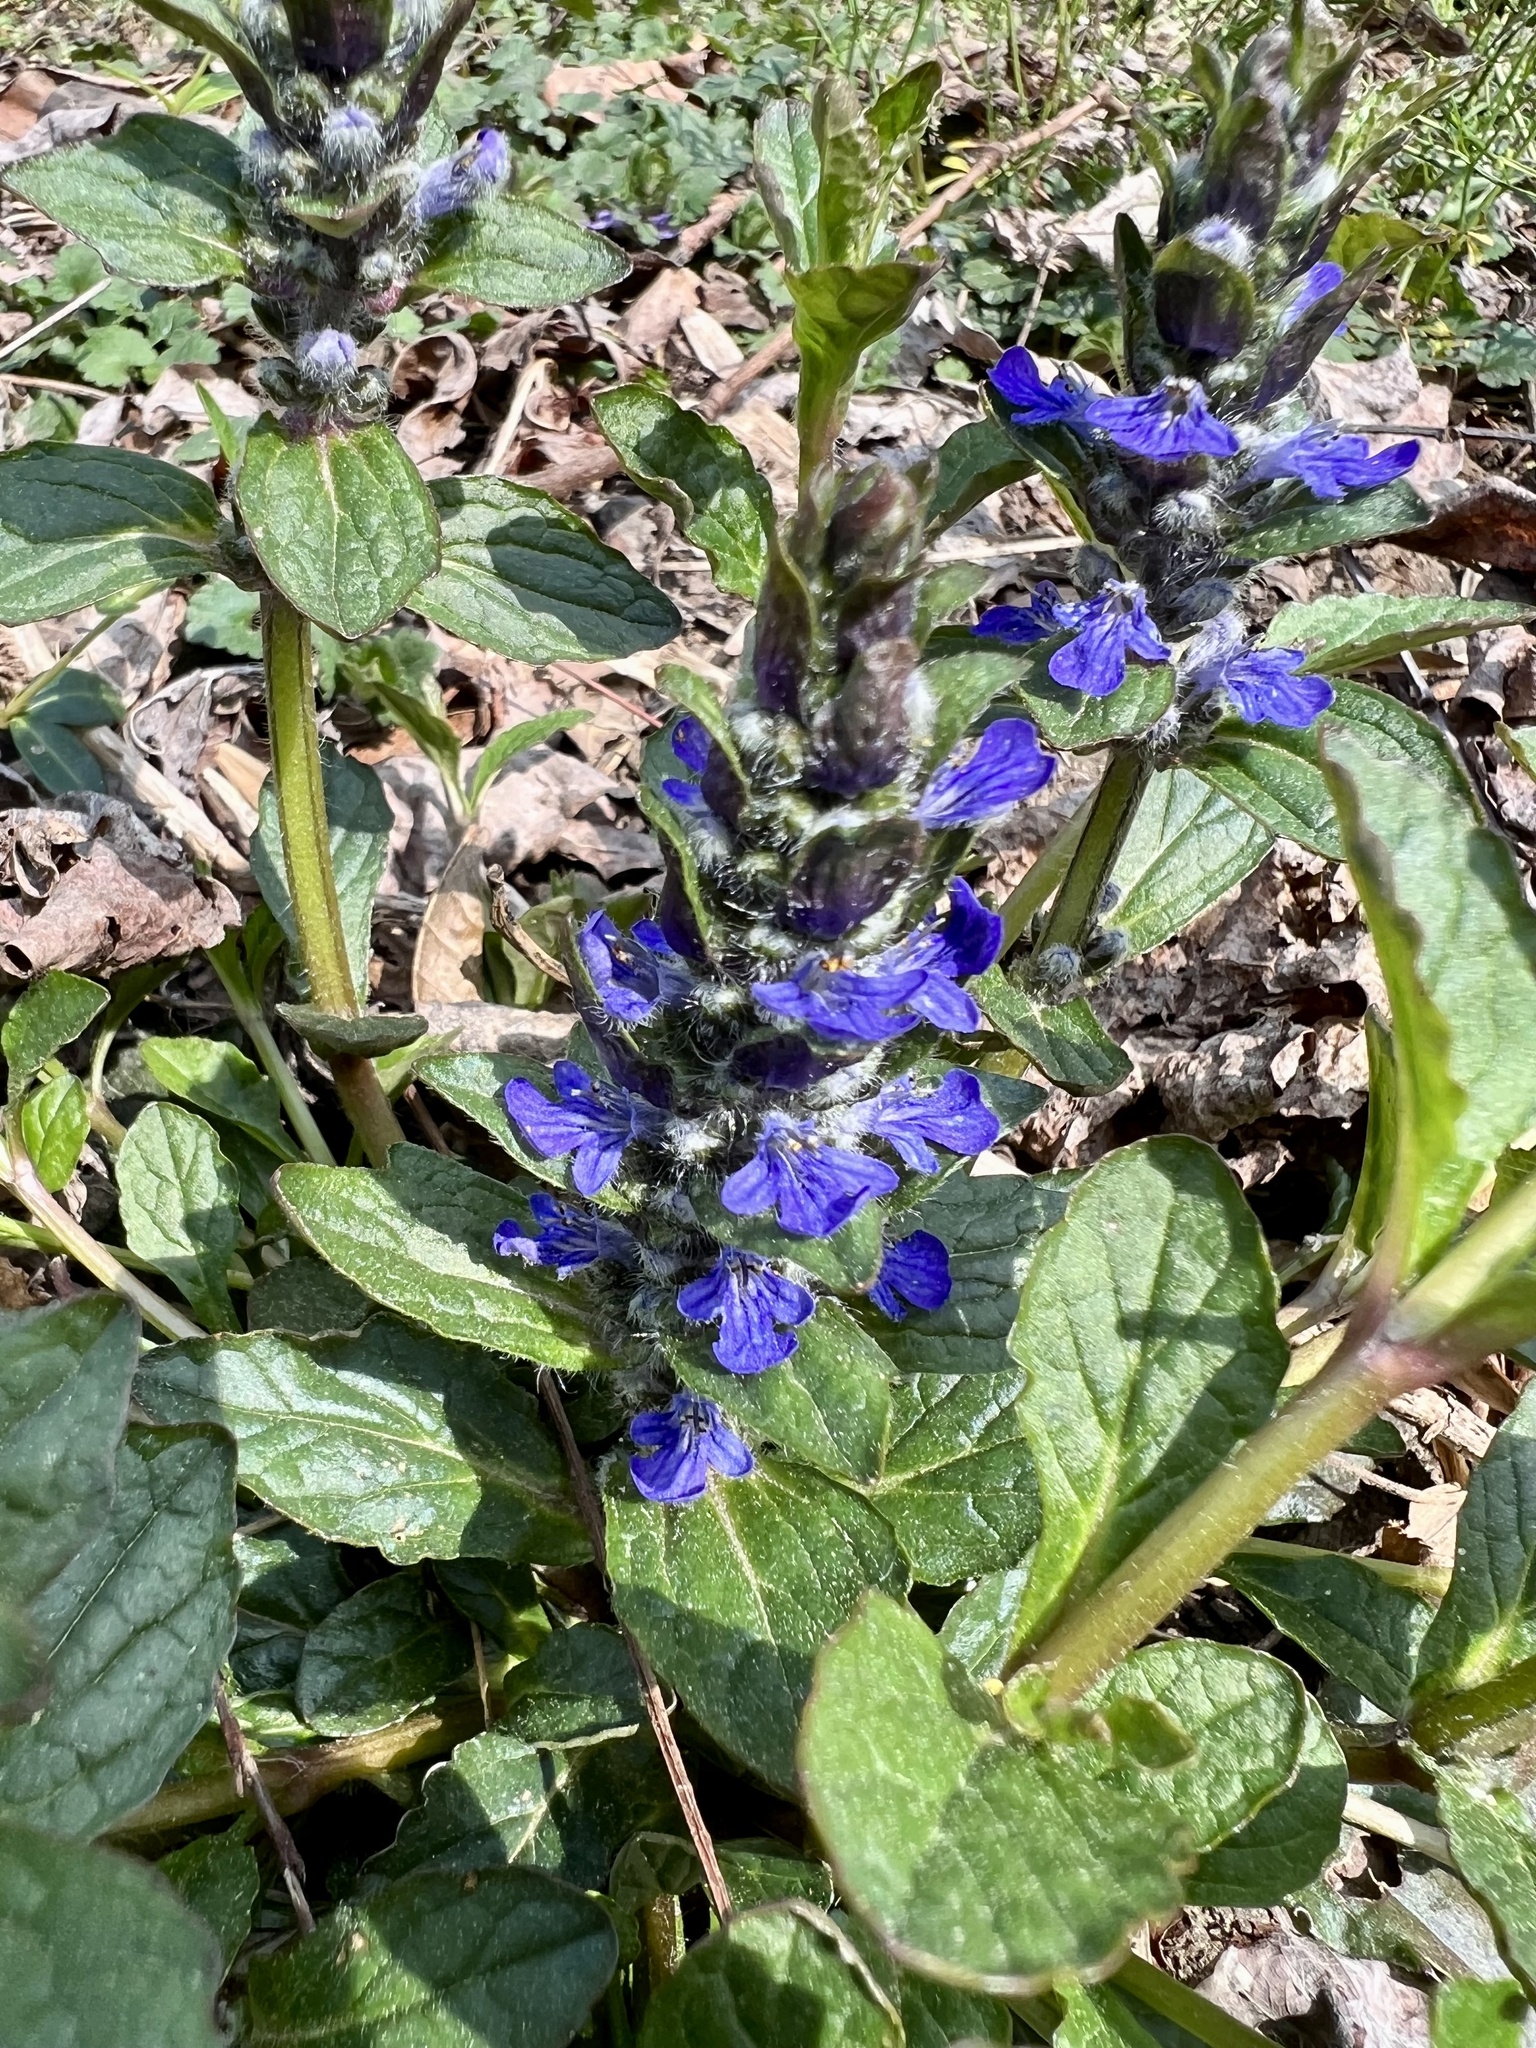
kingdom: Plantae
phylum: Tracheophyta
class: Magnoliopsida
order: Lamiales
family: Lamiaceae
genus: Ajuga
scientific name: Ajuga reptans
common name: Bugle
